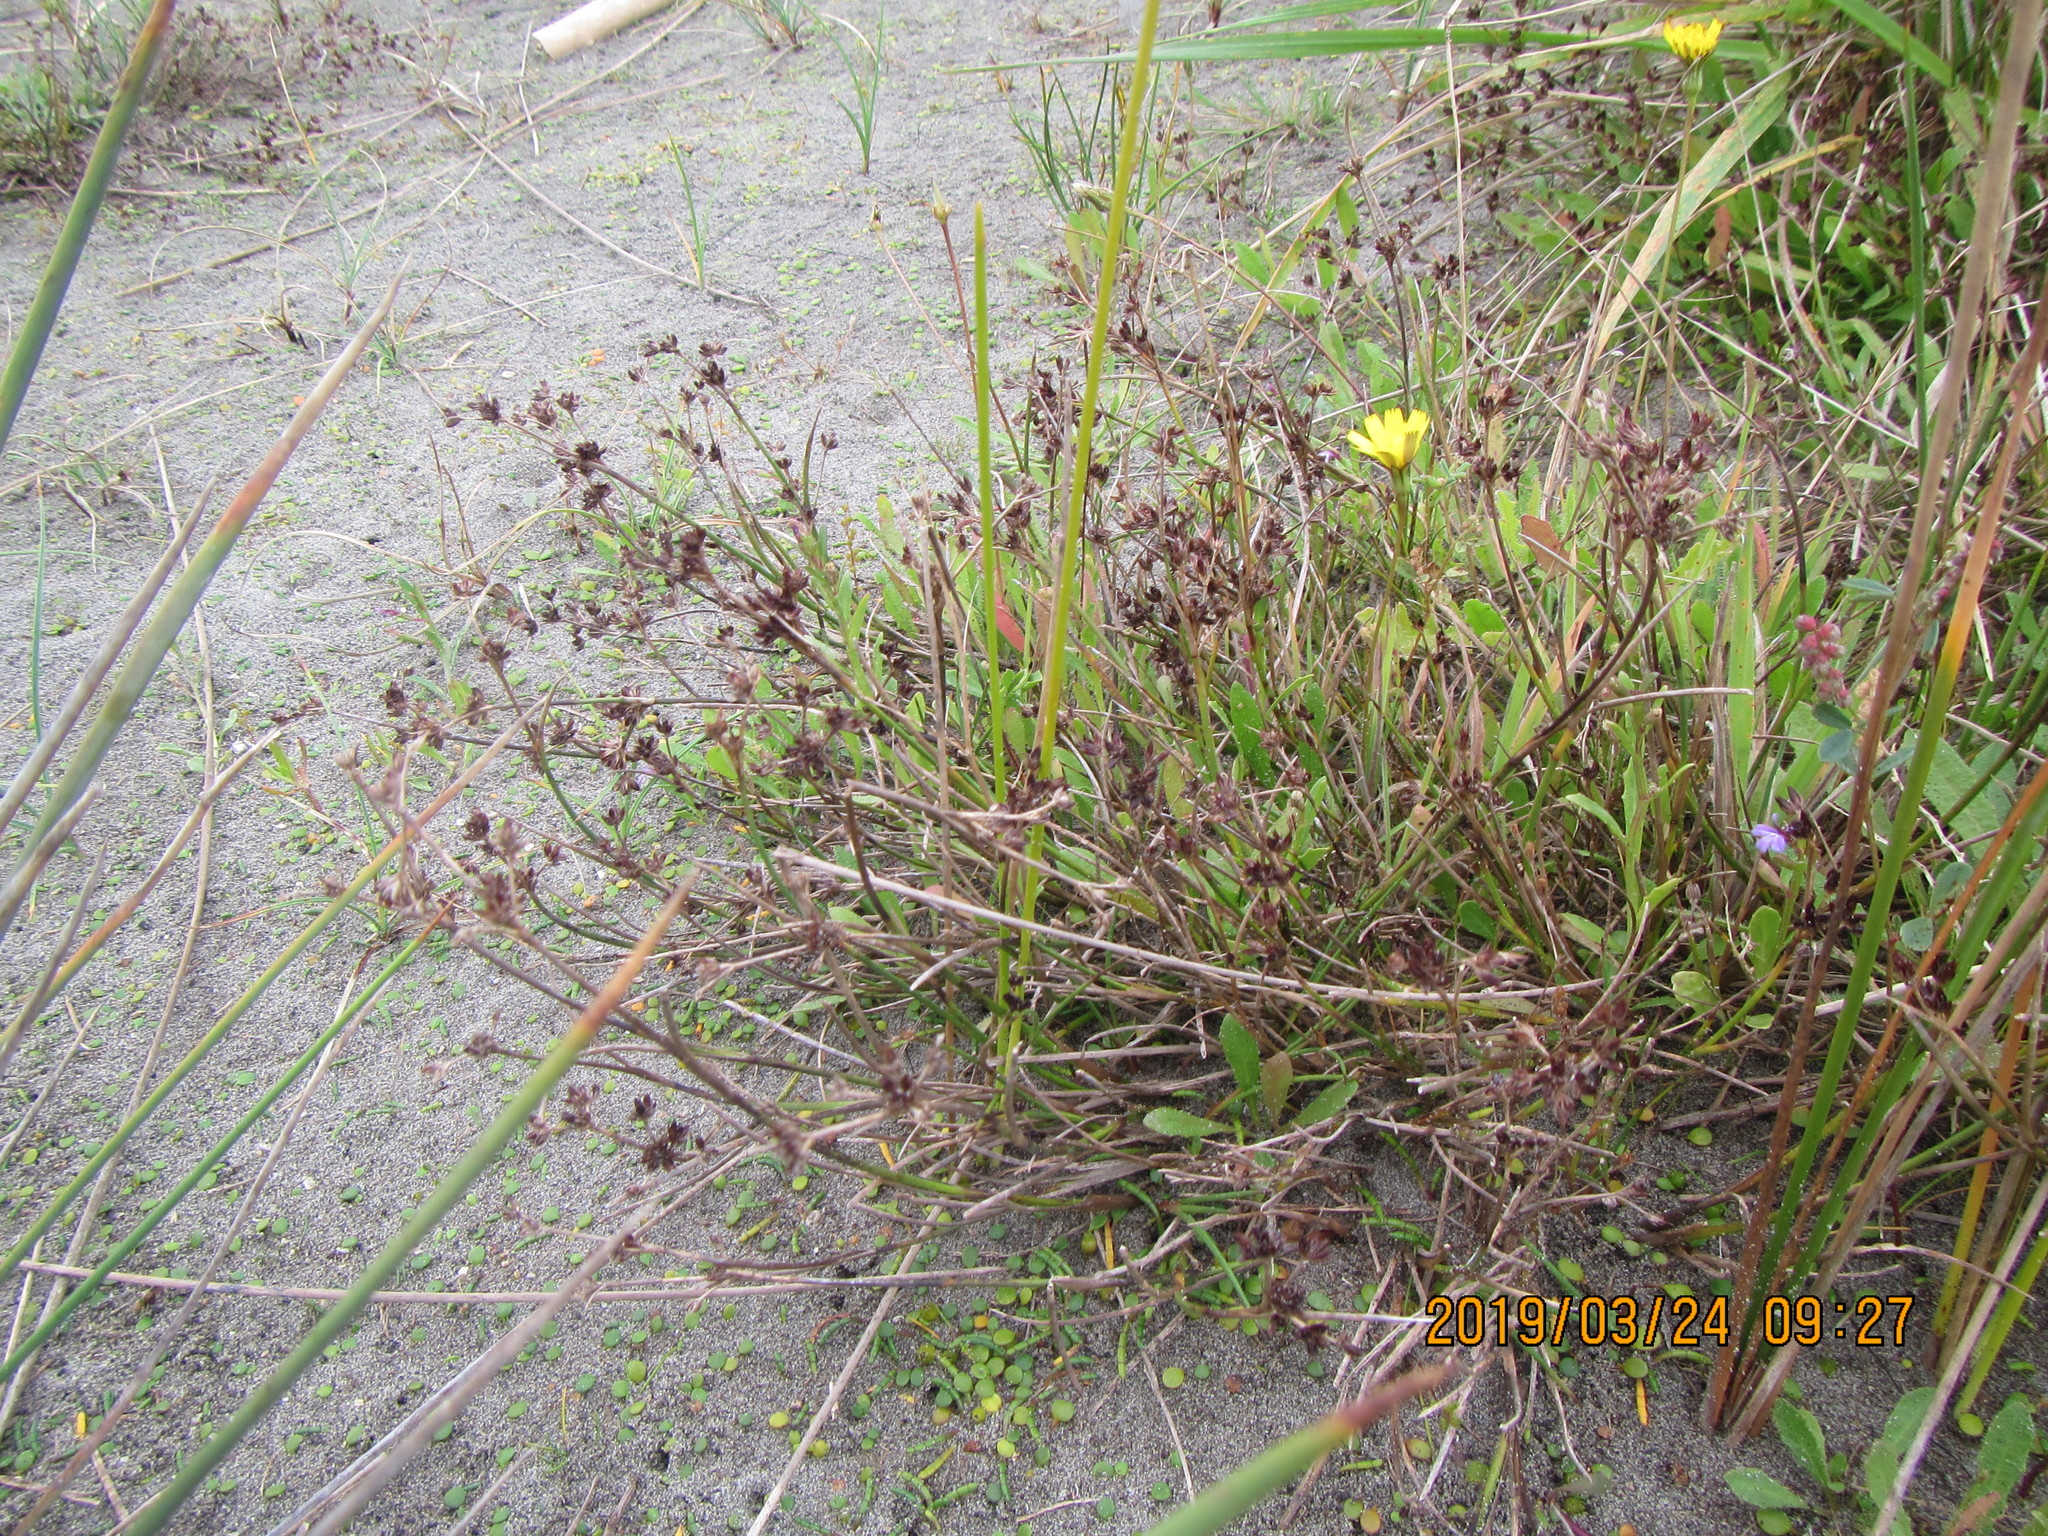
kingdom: Plantae
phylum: Tracheophyta
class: Liliopsida
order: Poales
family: Juncaceae
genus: Juncus
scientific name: Juncus articulatus
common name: Jointed rush
